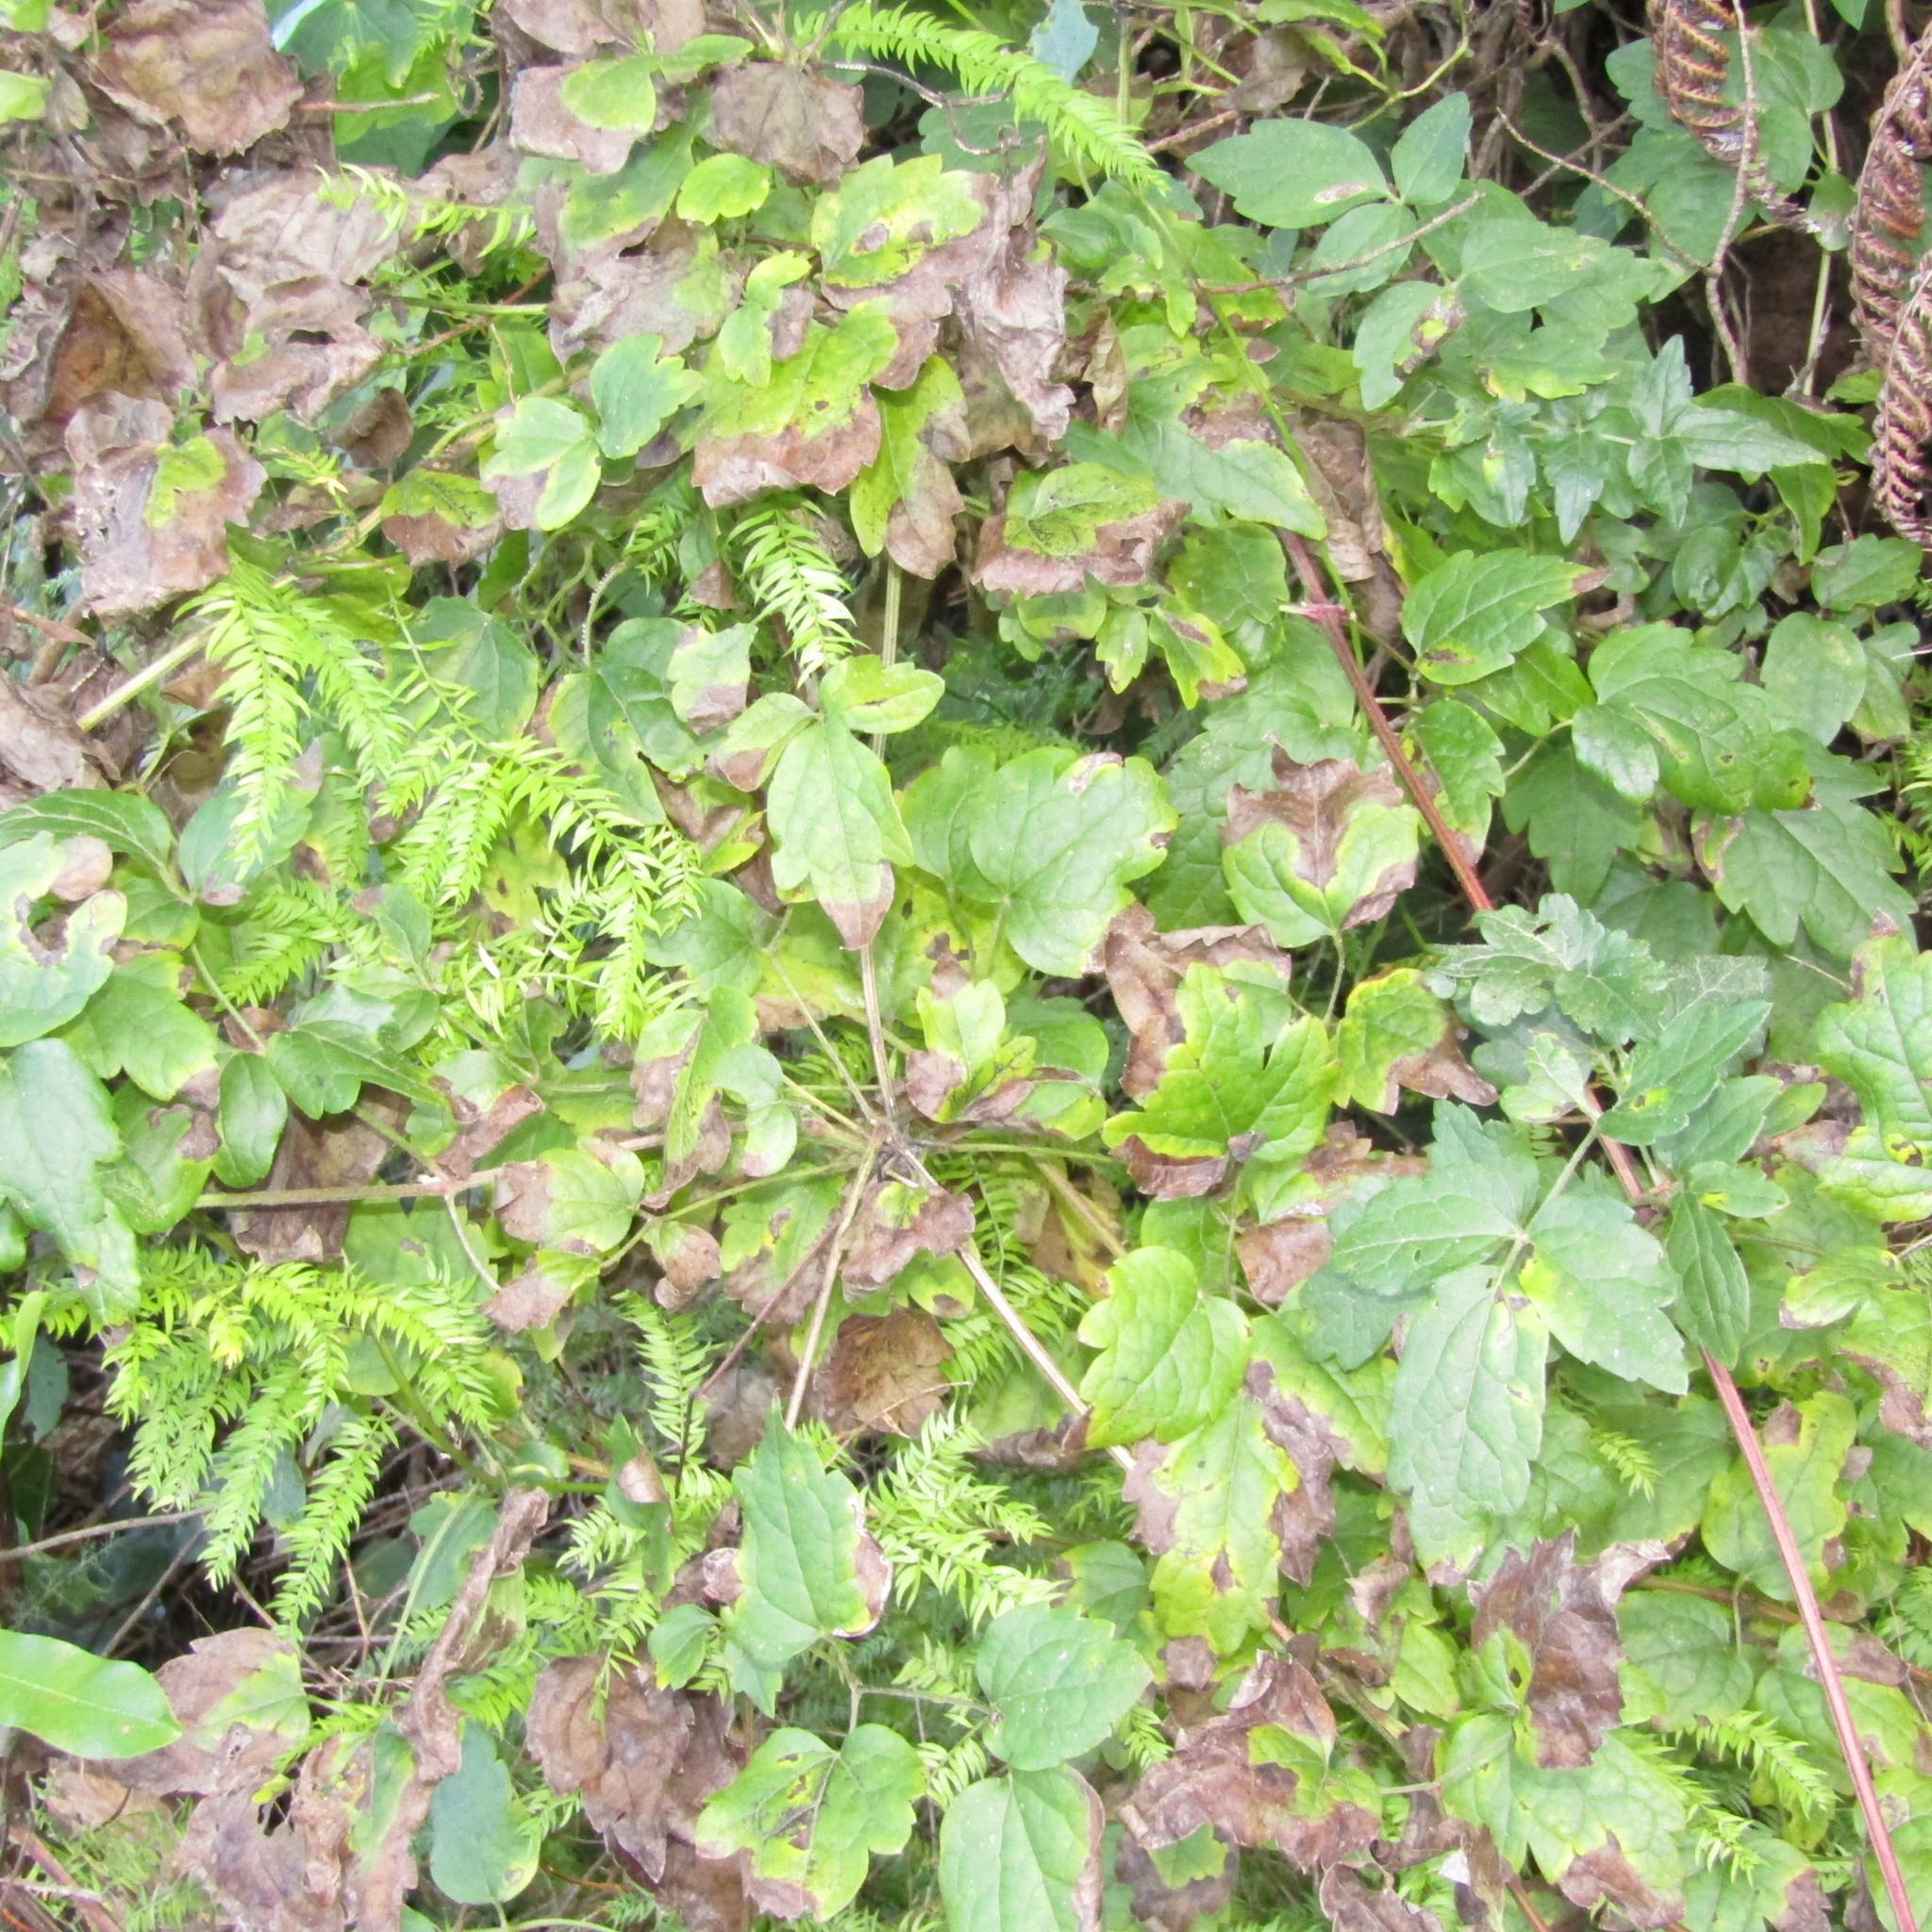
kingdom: Plantae
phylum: Tracheophyta
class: Magnoliopsida
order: Ranunculales
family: Ranunculaceae
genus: Clematis
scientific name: Clematis vitalba
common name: Evergreen clematis
